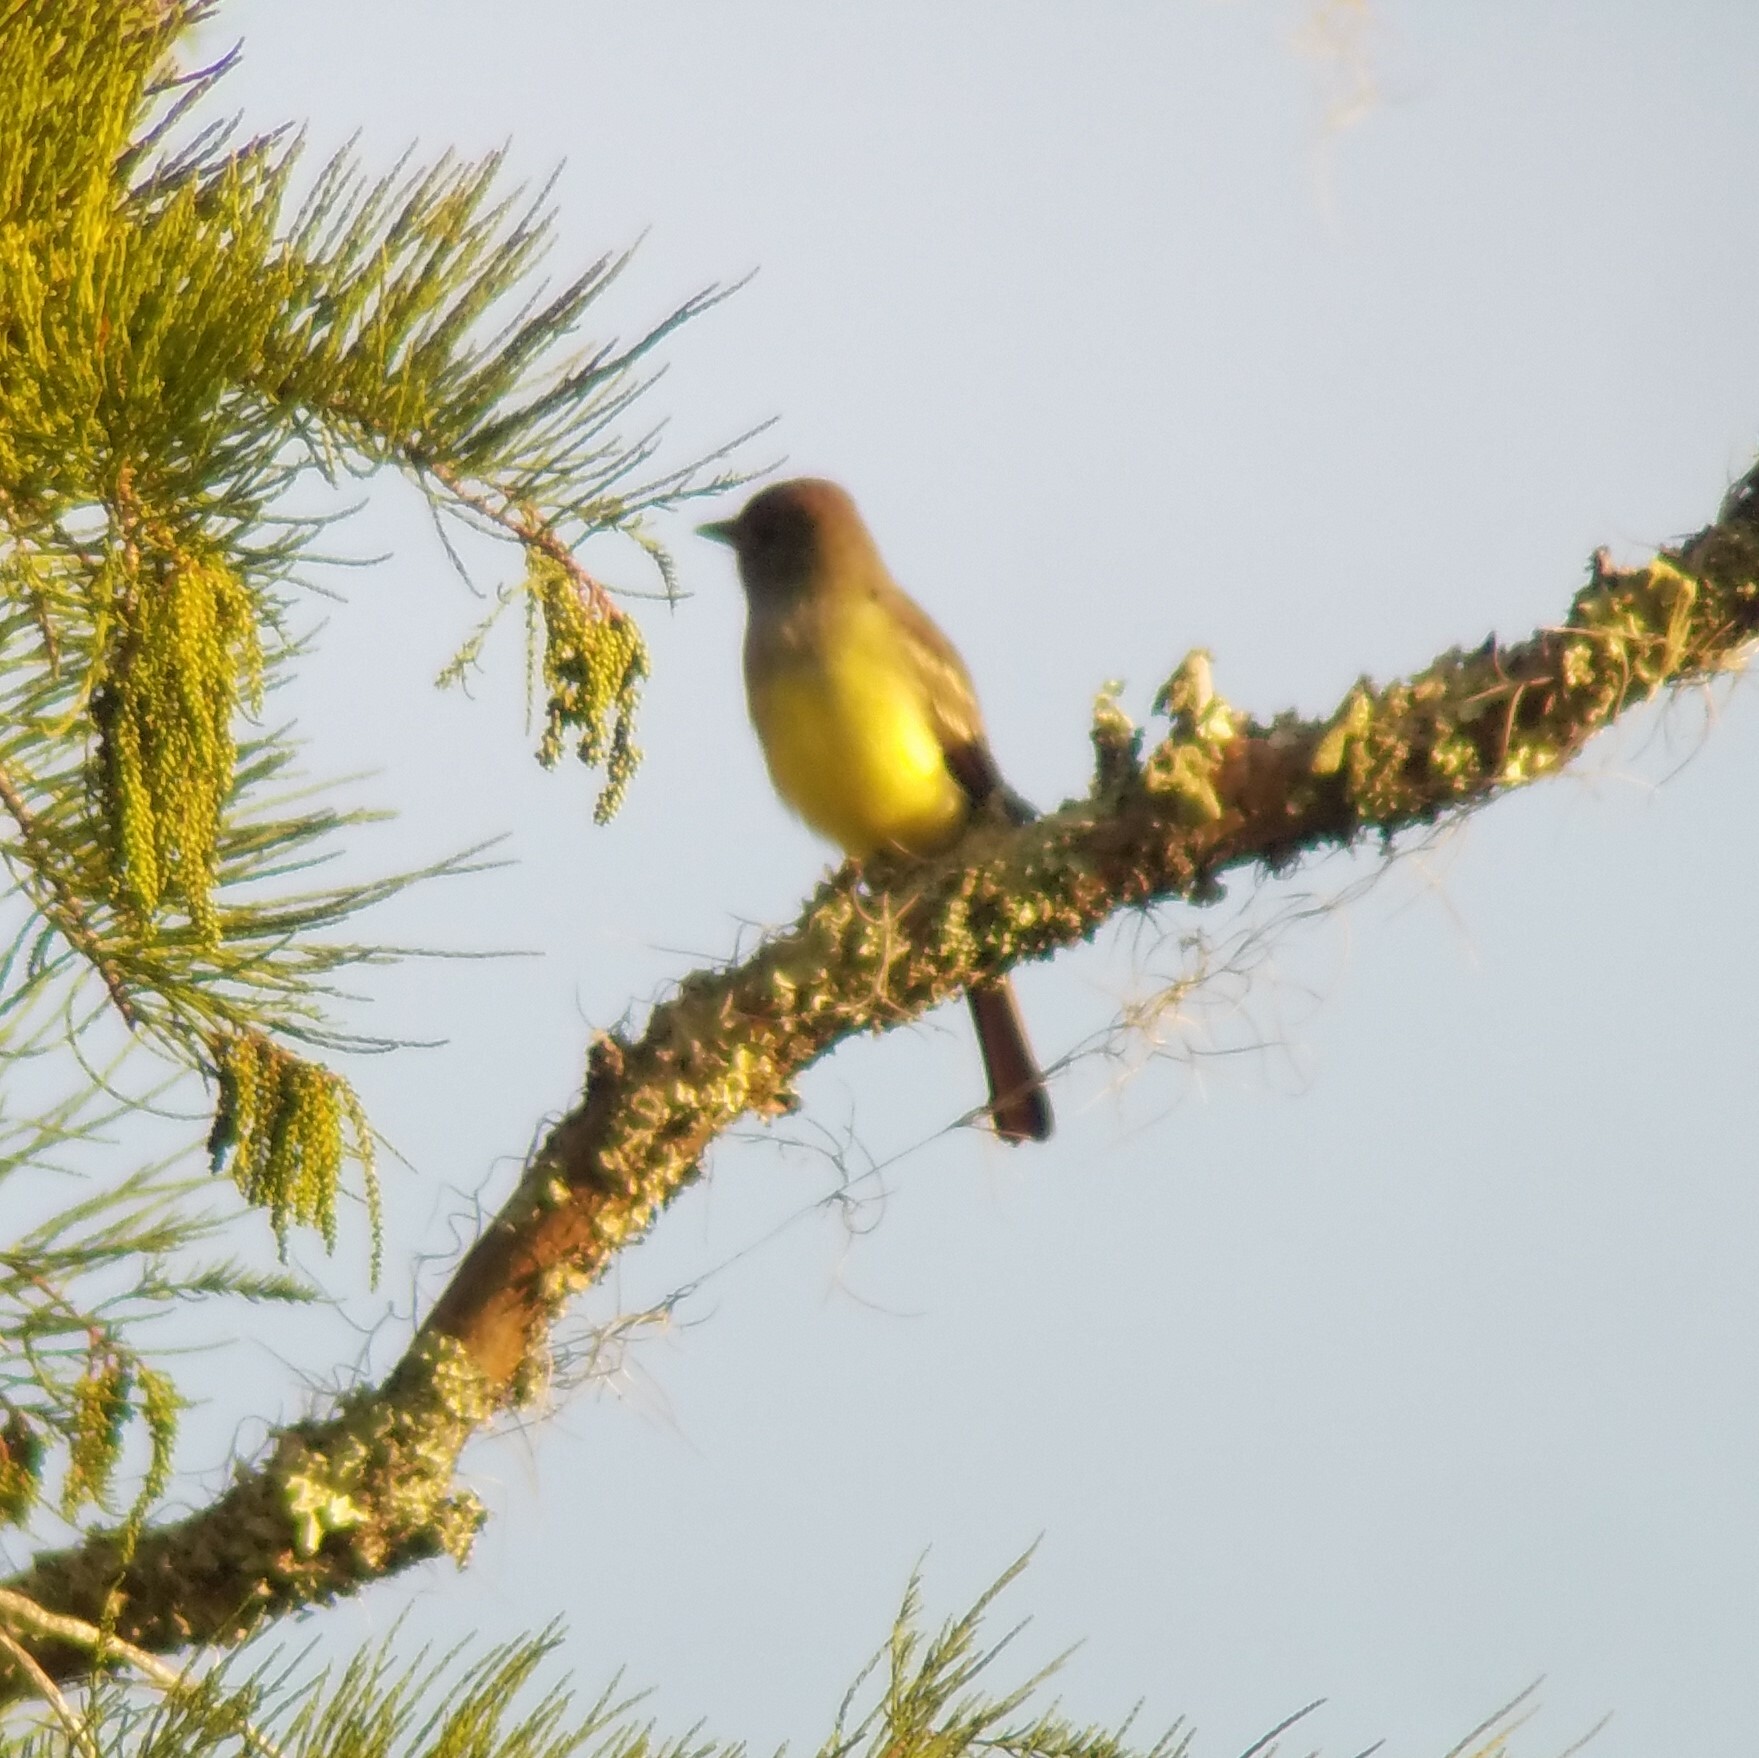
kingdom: Animalia
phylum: Chordata
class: Aves
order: Passeriformes
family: Tyrannidae
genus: Myiarchus
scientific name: Myiarchus crinitus
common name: Great crested flycatcher
